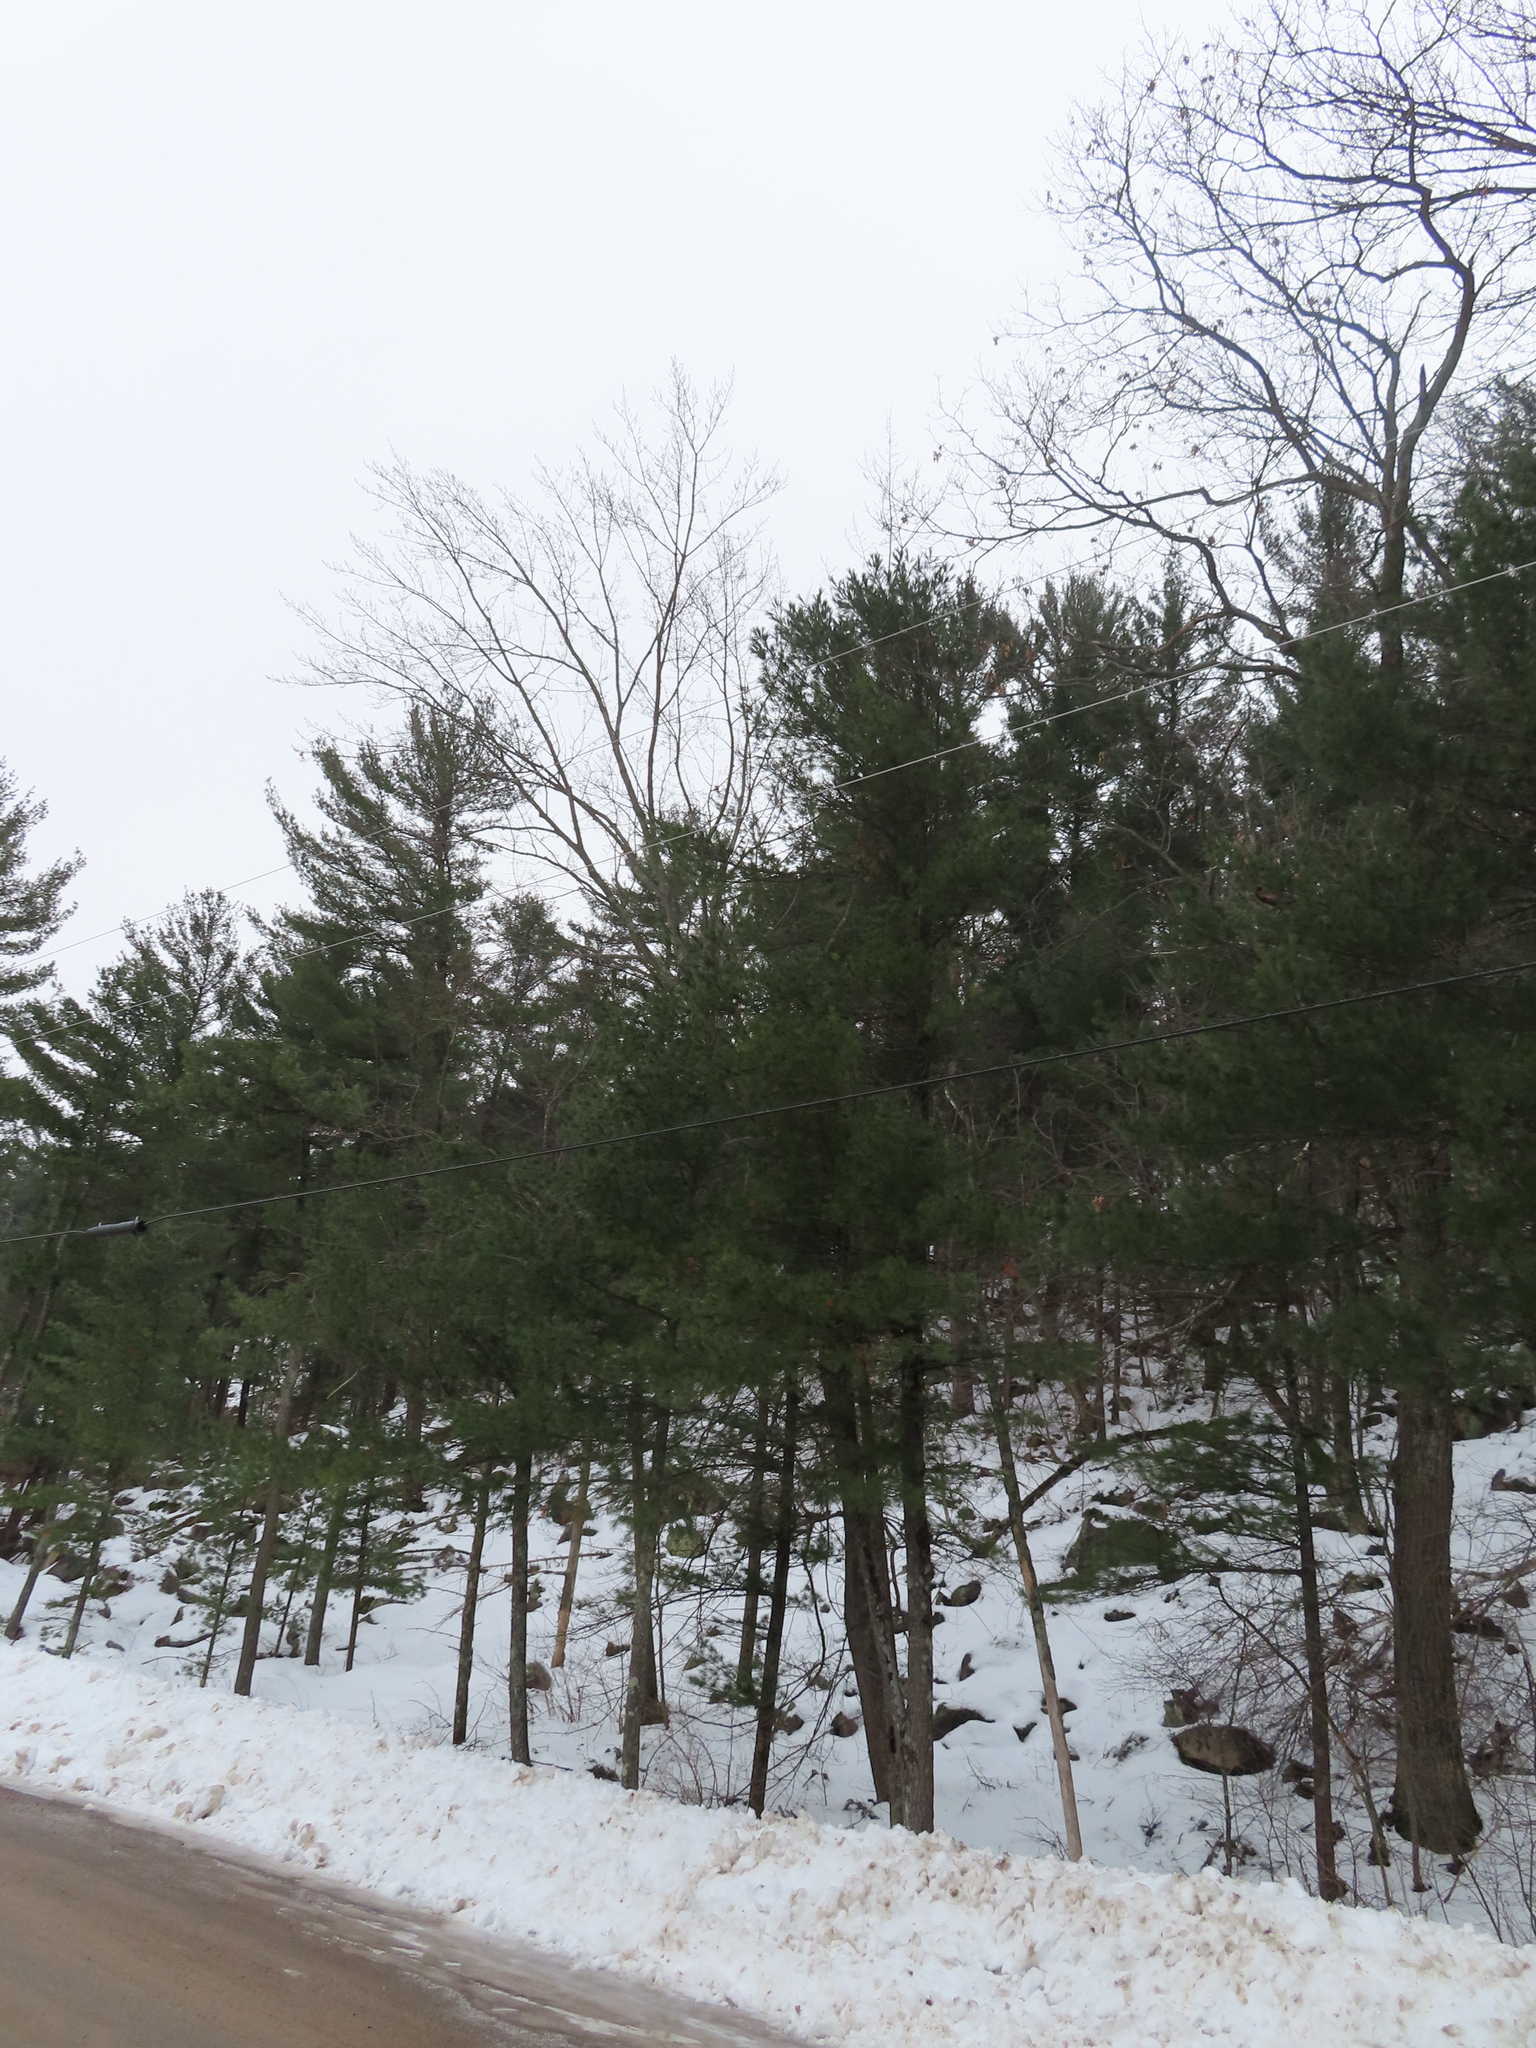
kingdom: Plantae
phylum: Tracheophyta
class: Pinopsida
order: Pinales
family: Pinaceae
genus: Pinus
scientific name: Pinus strobus
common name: Weymouth pine
